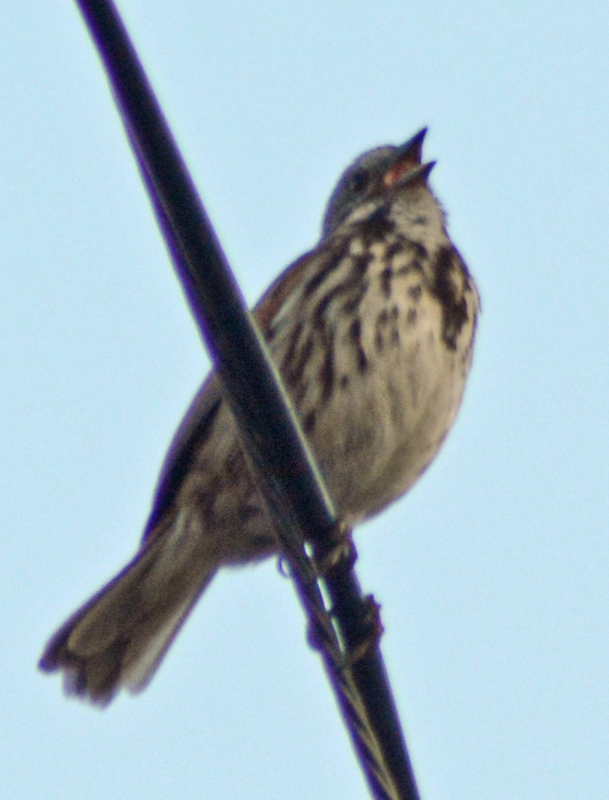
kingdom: Animalia
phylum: Chordata
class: Aves
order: Passeriformes
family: Passerellidae
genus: Melospiza
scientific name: Melospiza melodia
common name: Song sparrow
